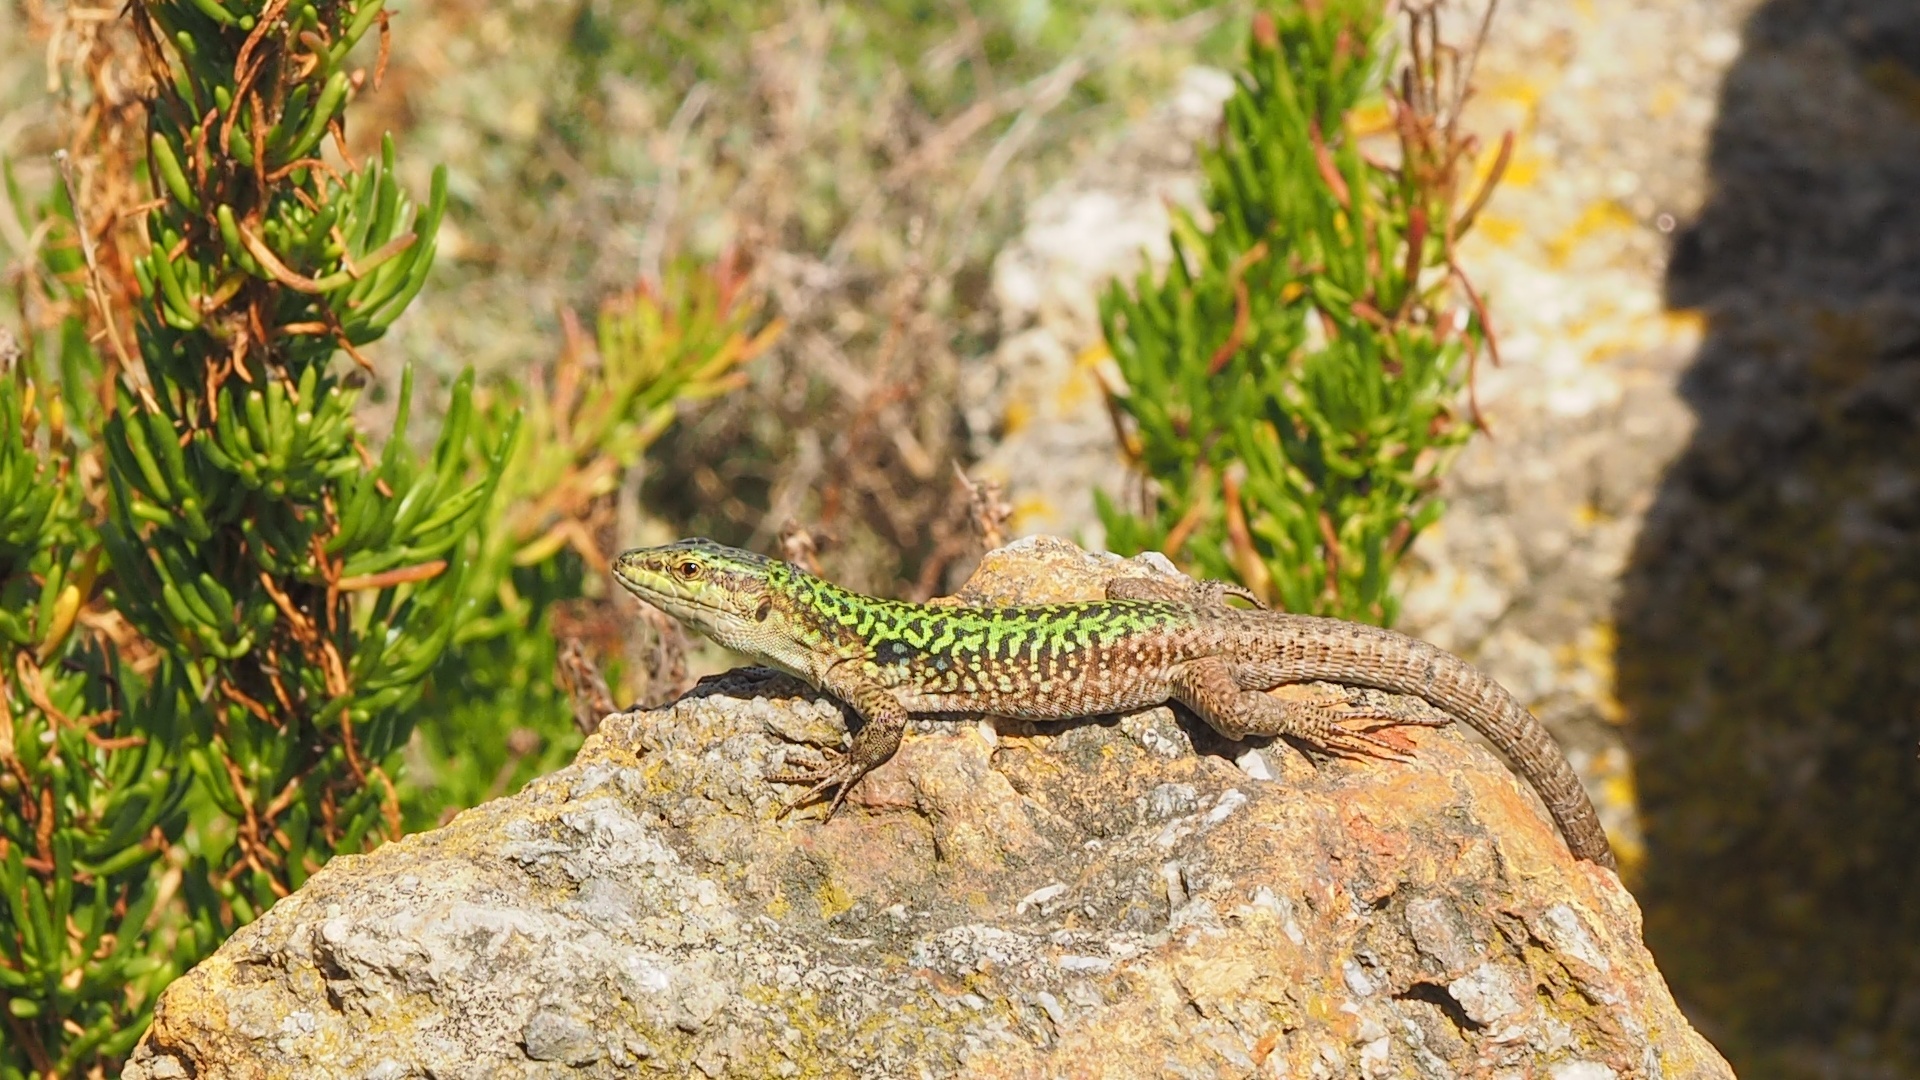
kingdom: Animalia
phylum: Chordata
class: Squamata
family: Lacertidae
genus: Podarcis
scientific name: Podarcis siculus
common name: Italian wall lizard
